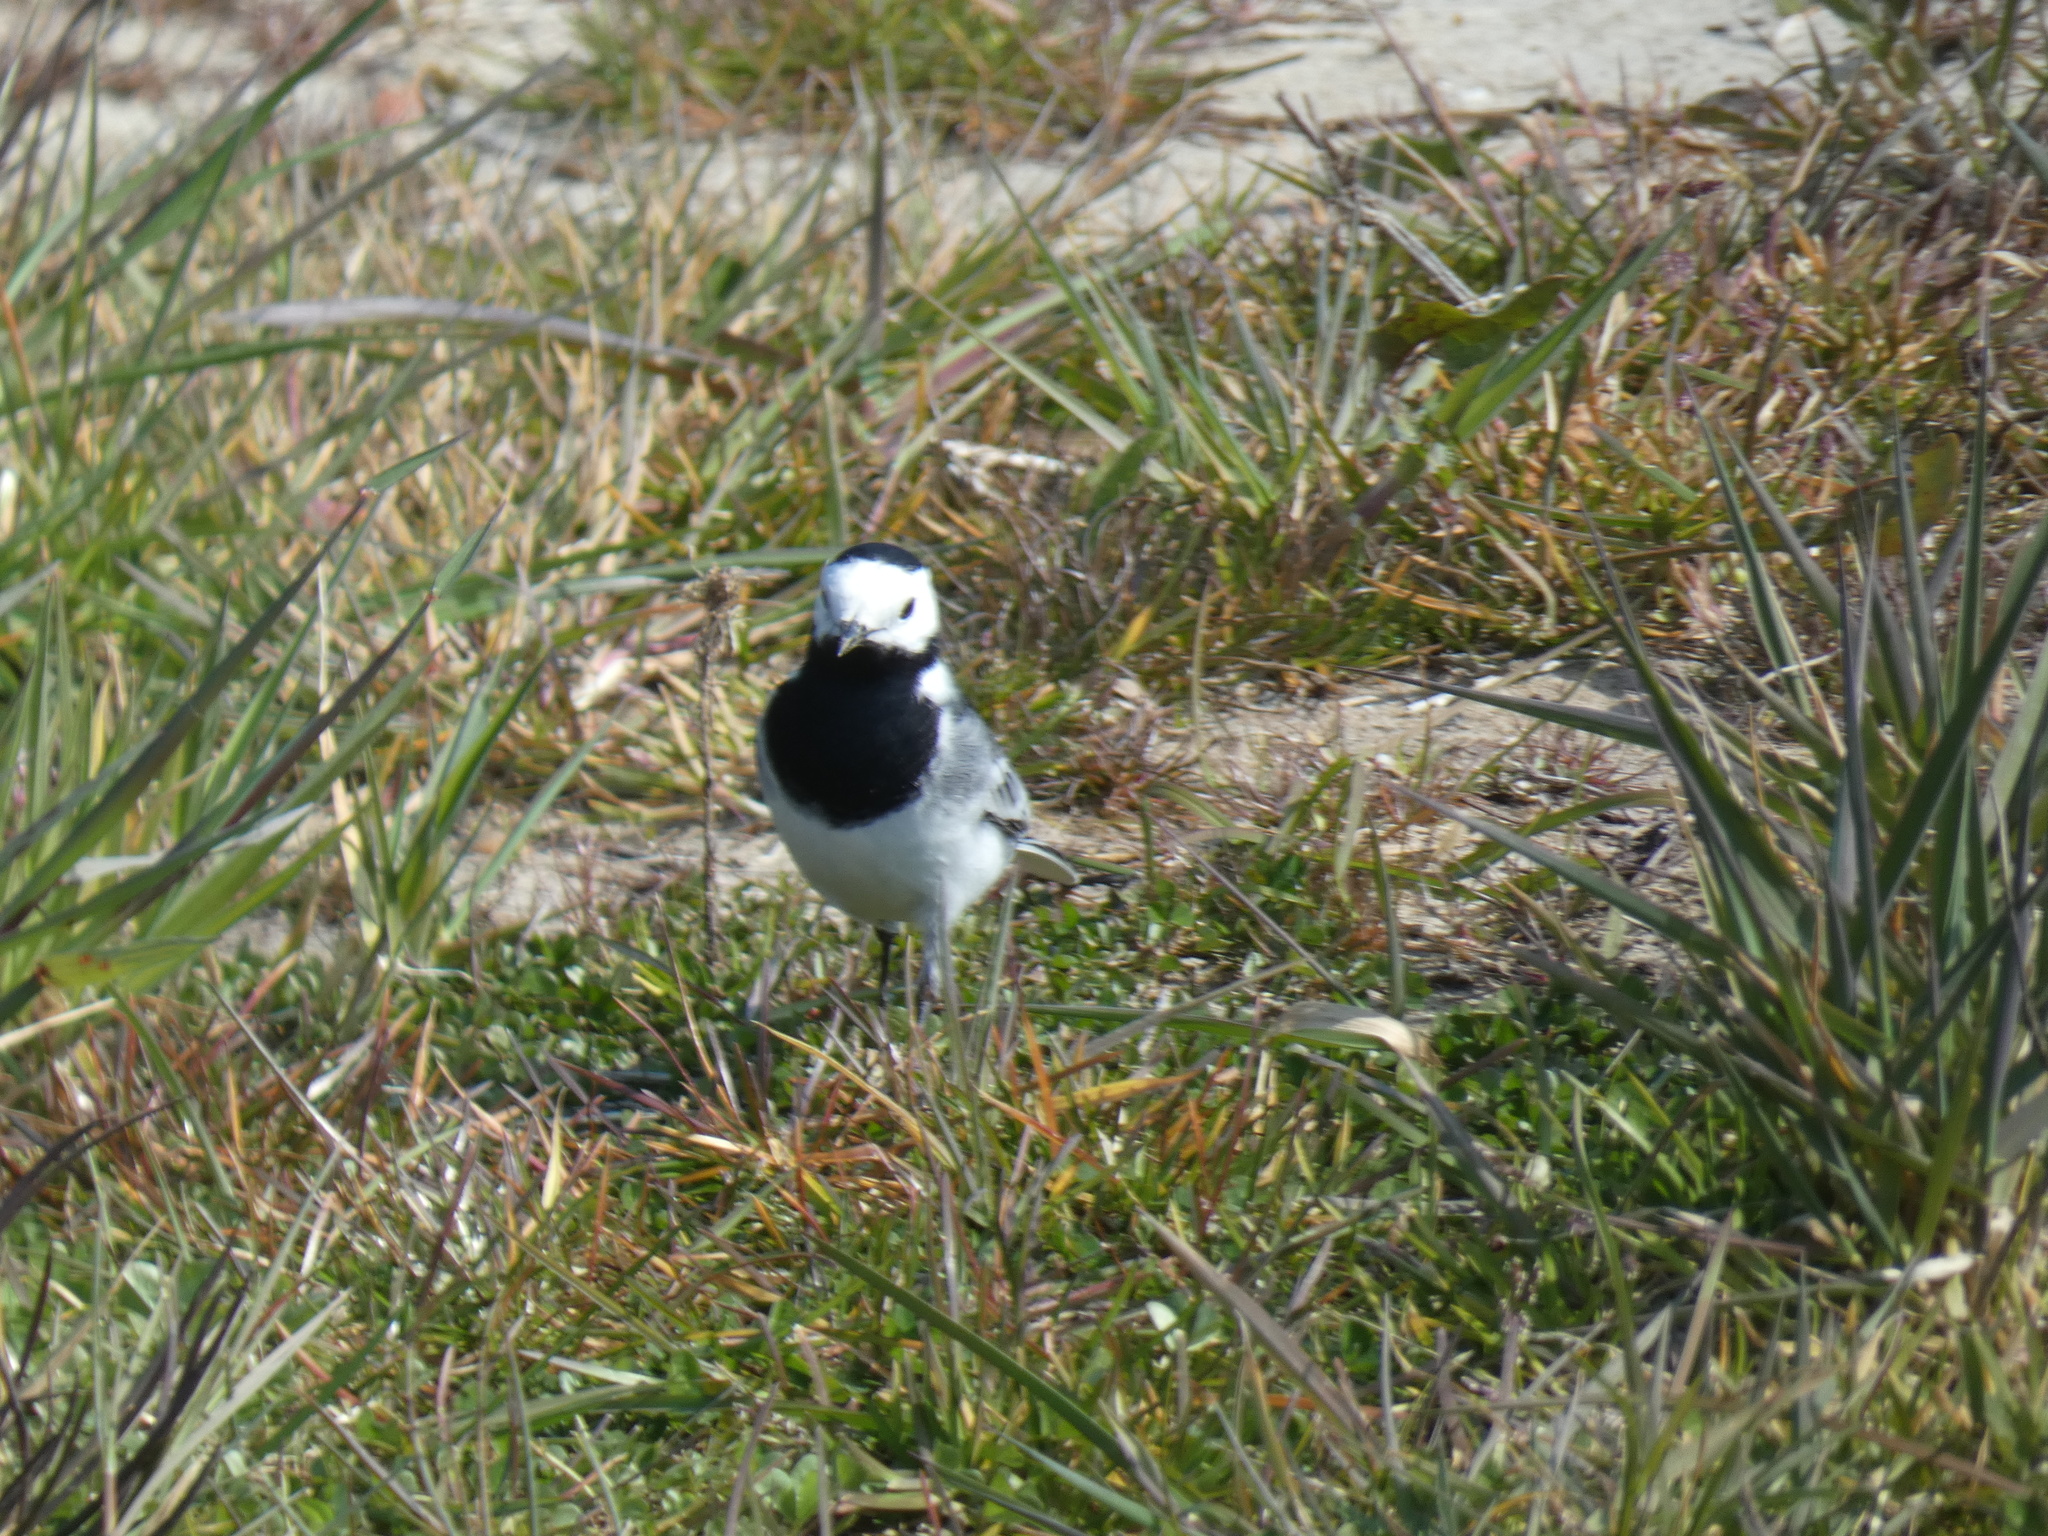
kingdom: Animalia
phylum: Chordata
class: Aves
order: Passeriformes
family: Motacillidae
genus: Motacilla
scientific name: Motacilla alba
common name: White wagtail
